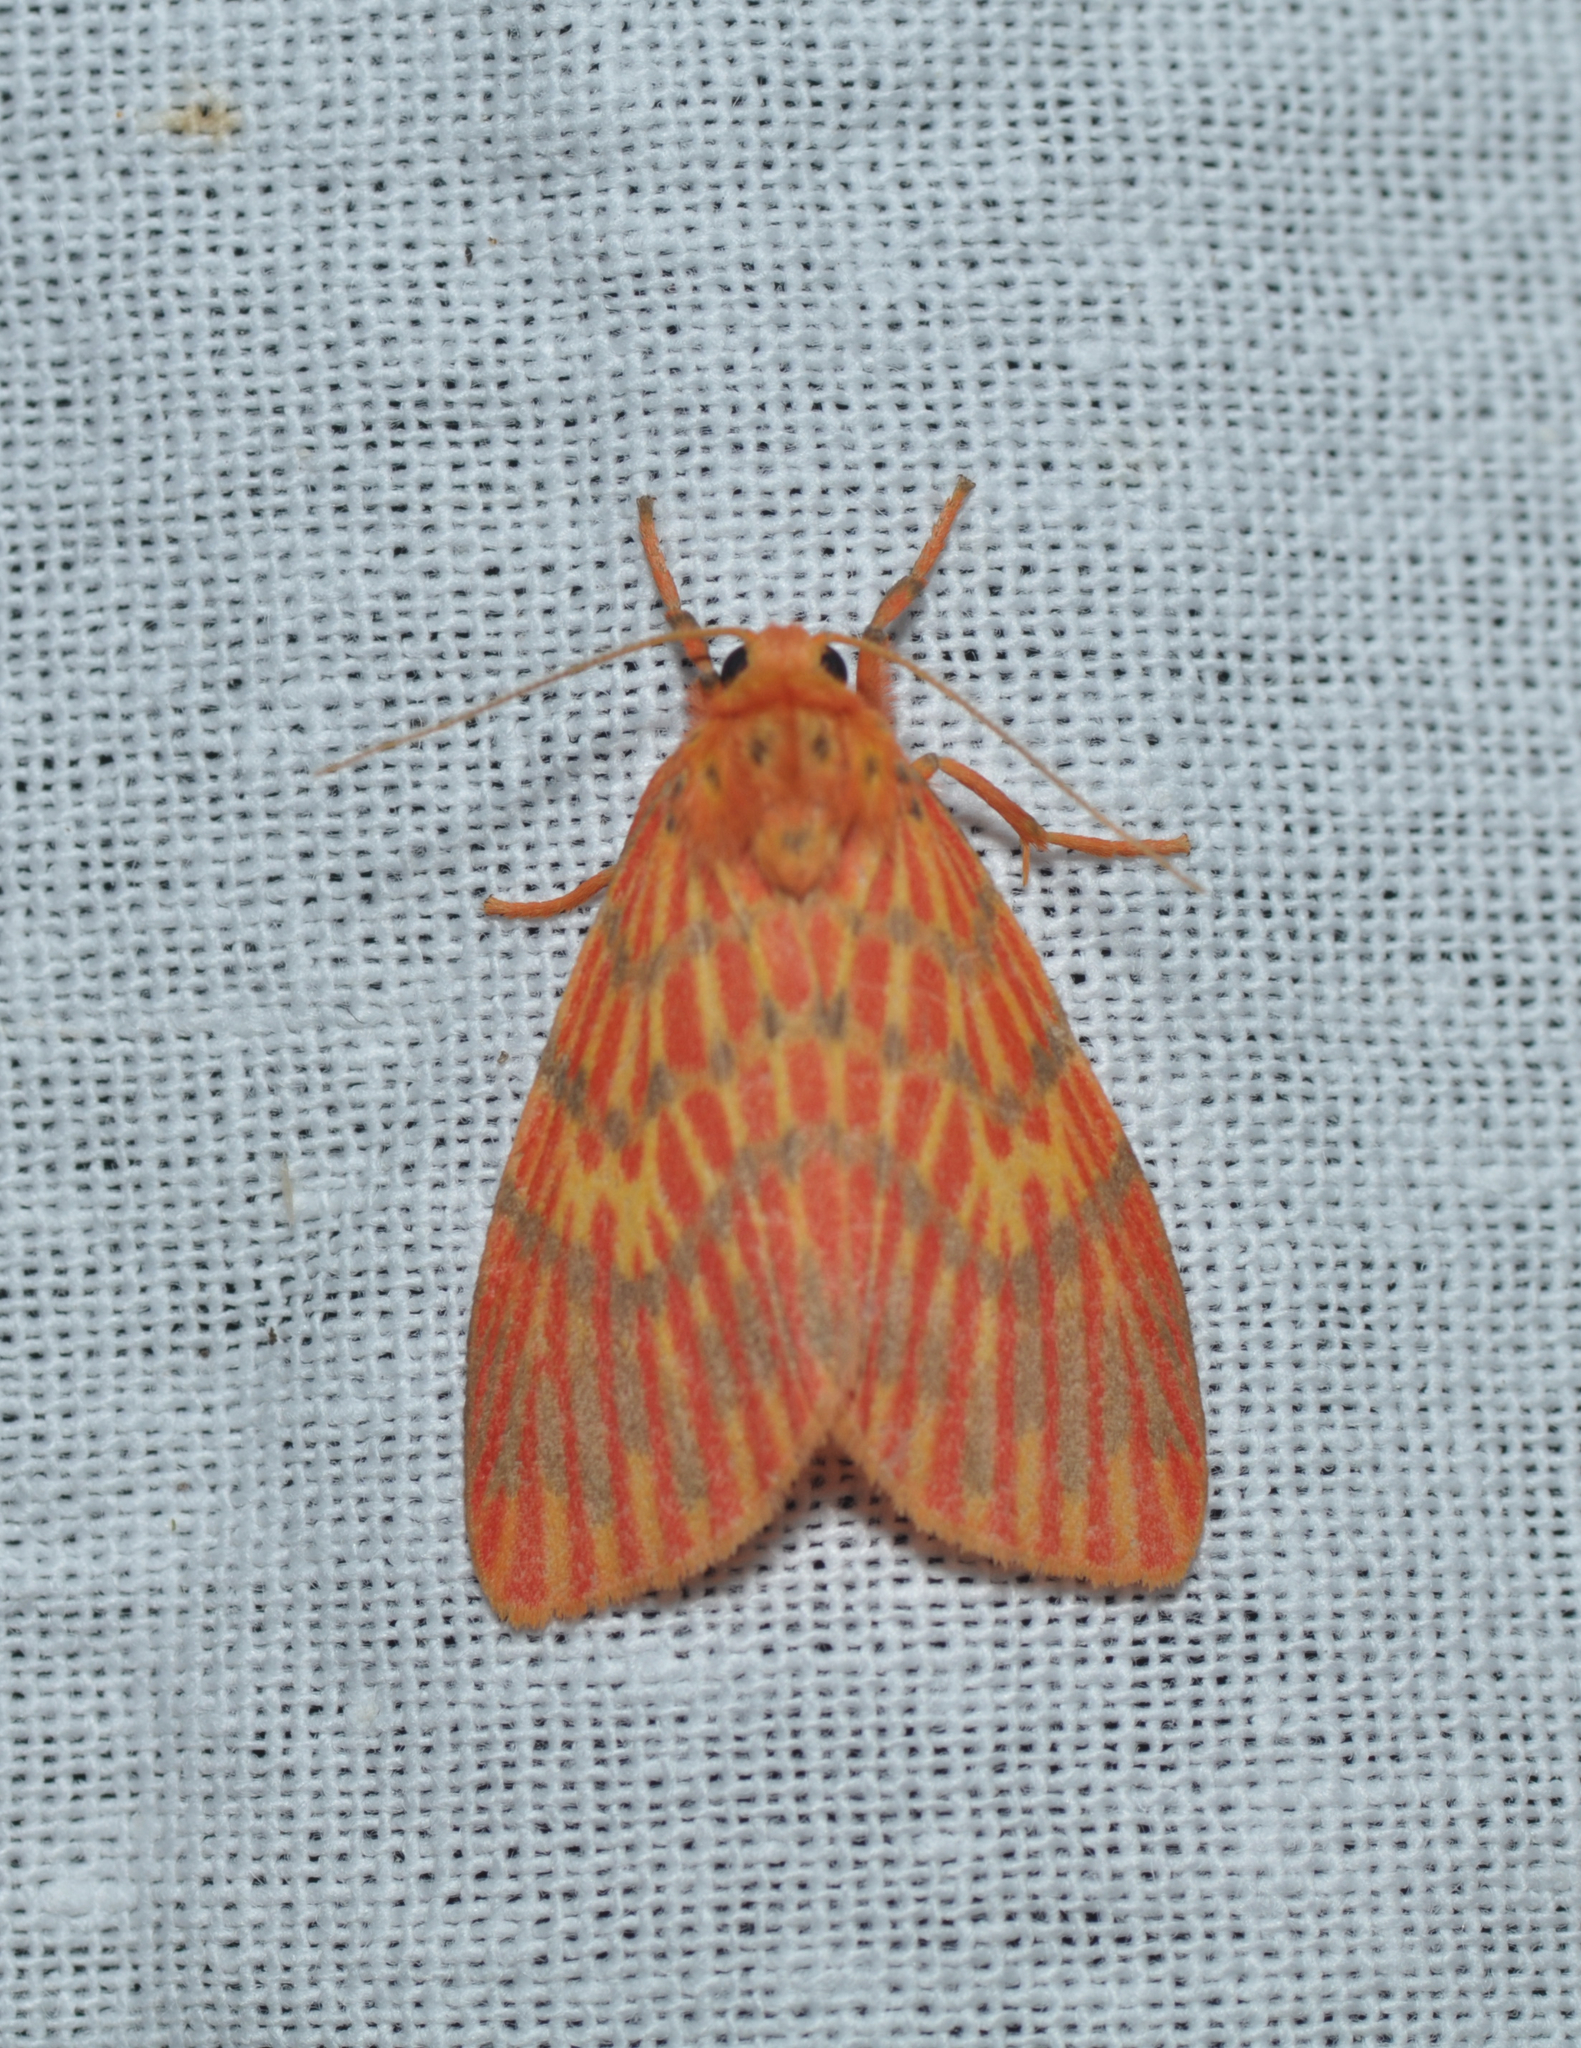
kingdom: Animalia
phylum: Arthropoda
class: Insecta
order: Lepidoptera
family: Erebidae
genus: Barsine
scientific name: Barsine orientalis
